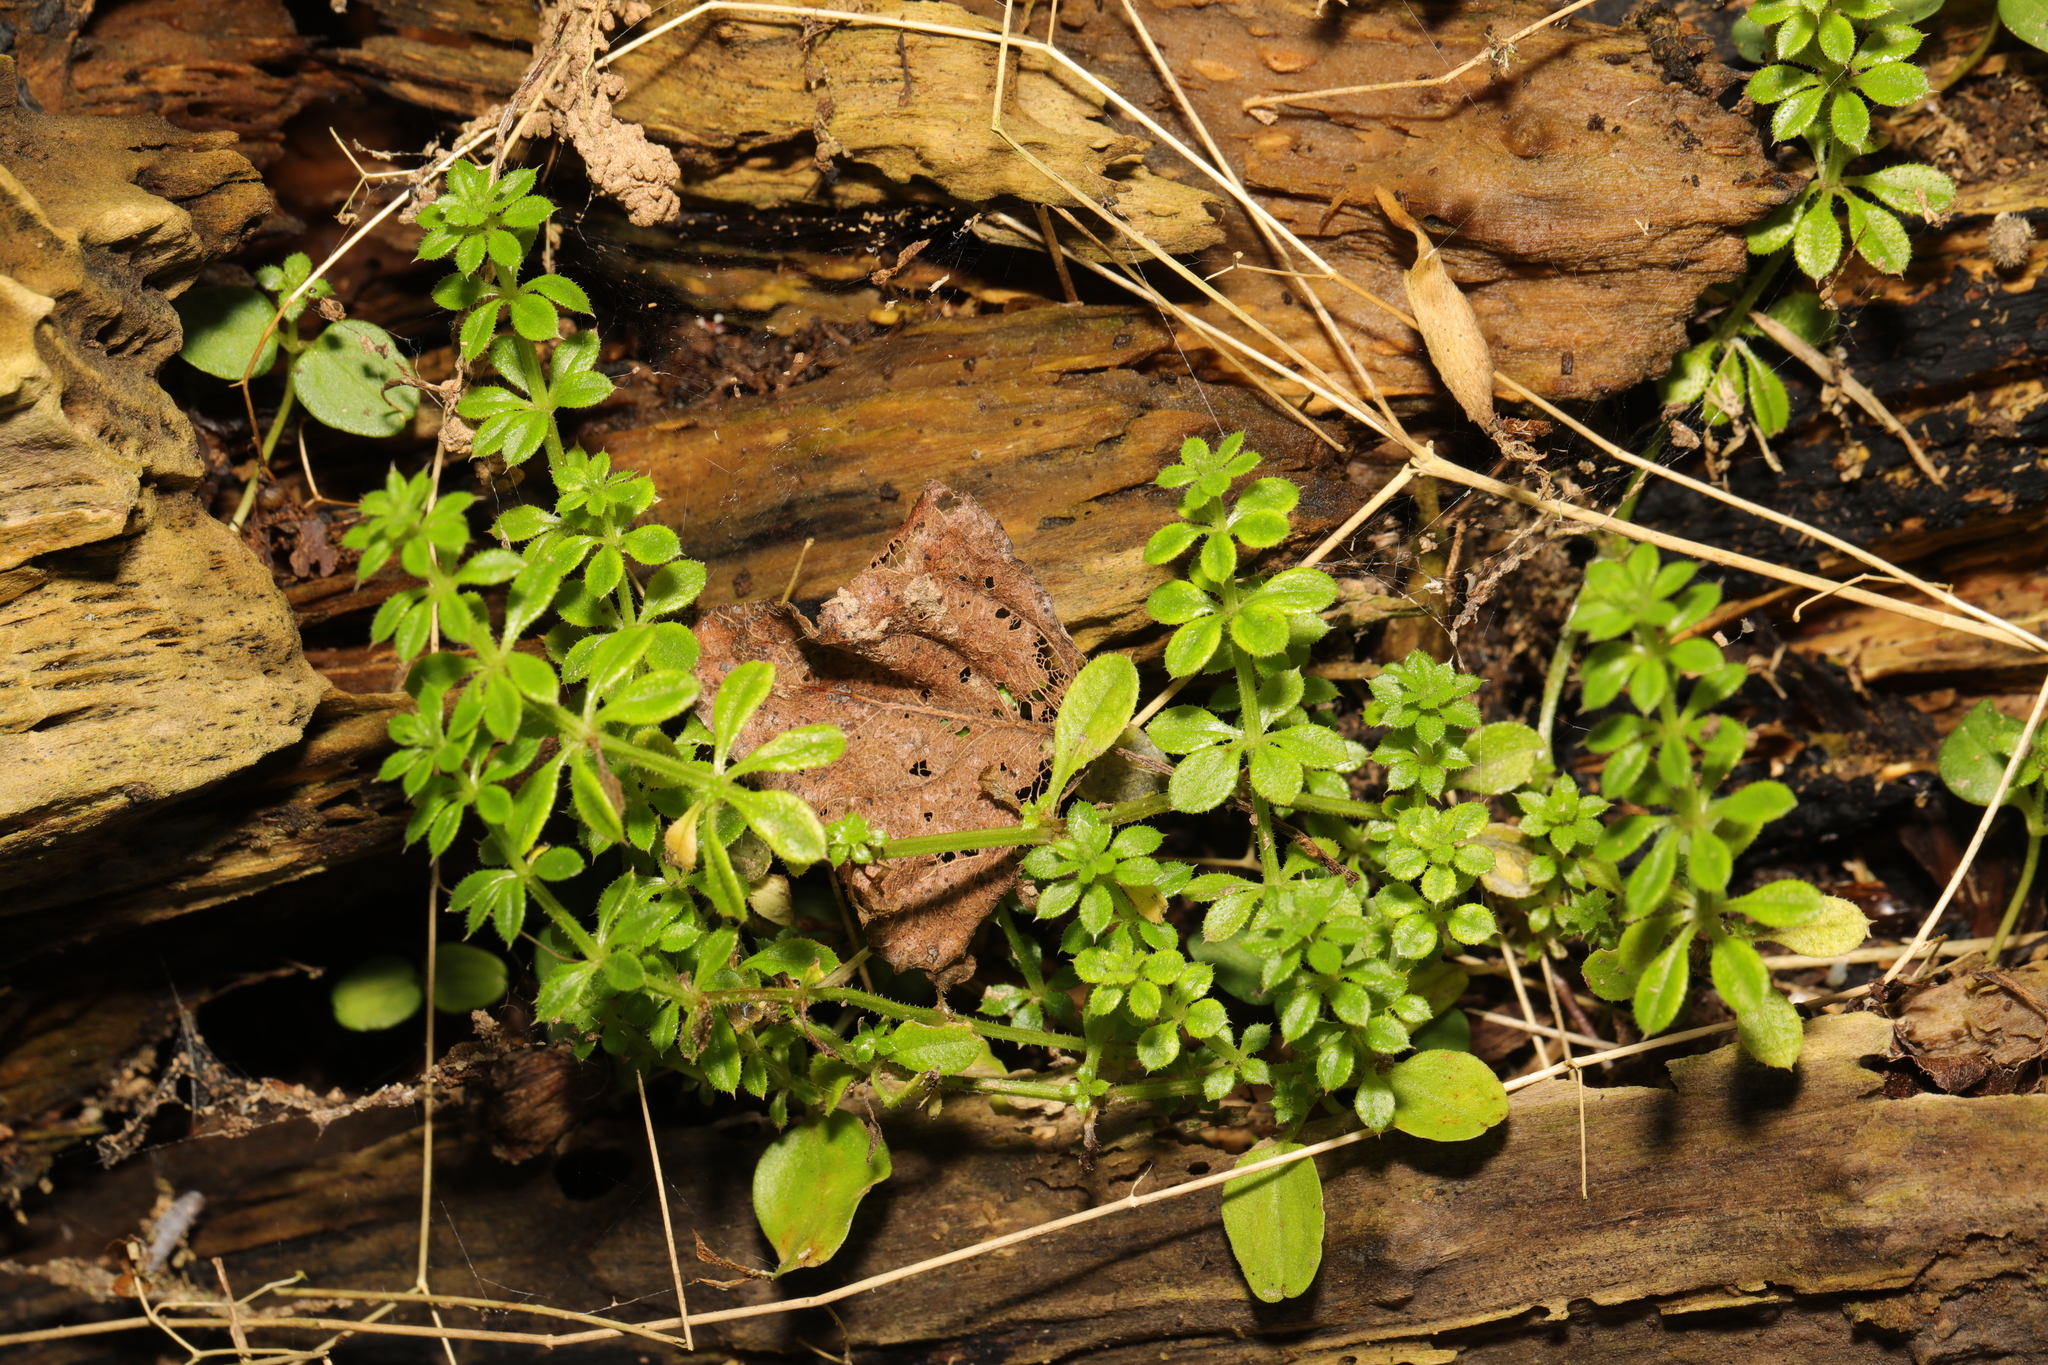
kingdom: Plantae
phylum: Tracheophyta
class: Magnoliopsida
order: Gentianales
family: Rubiaceae
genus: Galium
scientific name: Galium aparine
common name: Cleavers
